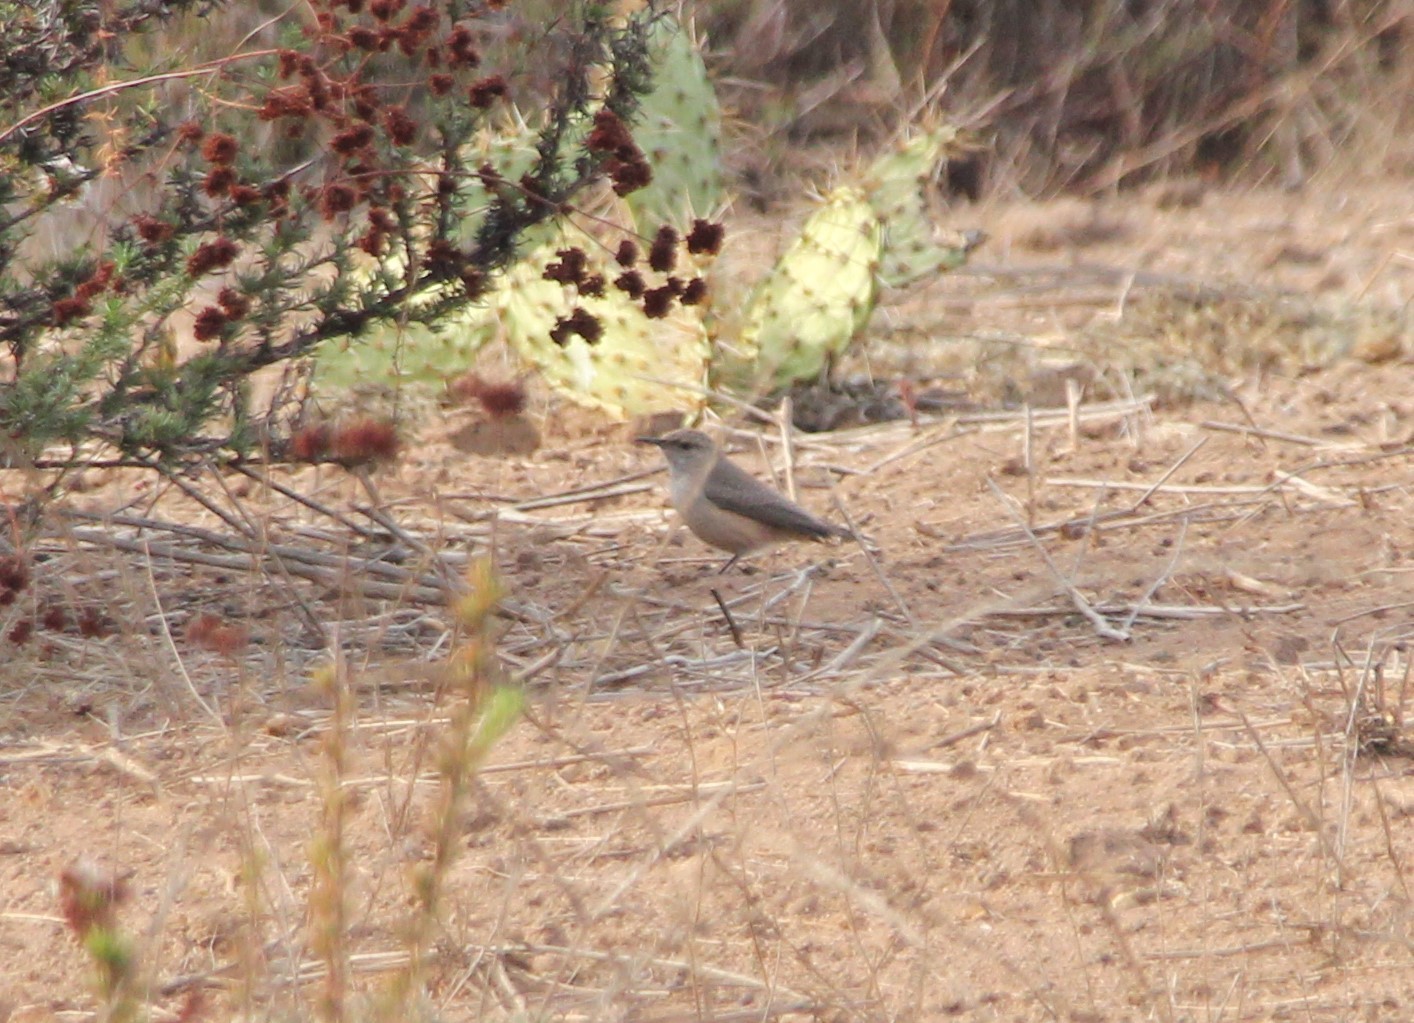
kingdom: Animalia
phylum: Chordata
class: Aves
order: Passeriformes
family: Troglodytidae
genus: Salpinctes
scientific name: Salpinctes obsoletus
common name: Rock wren
